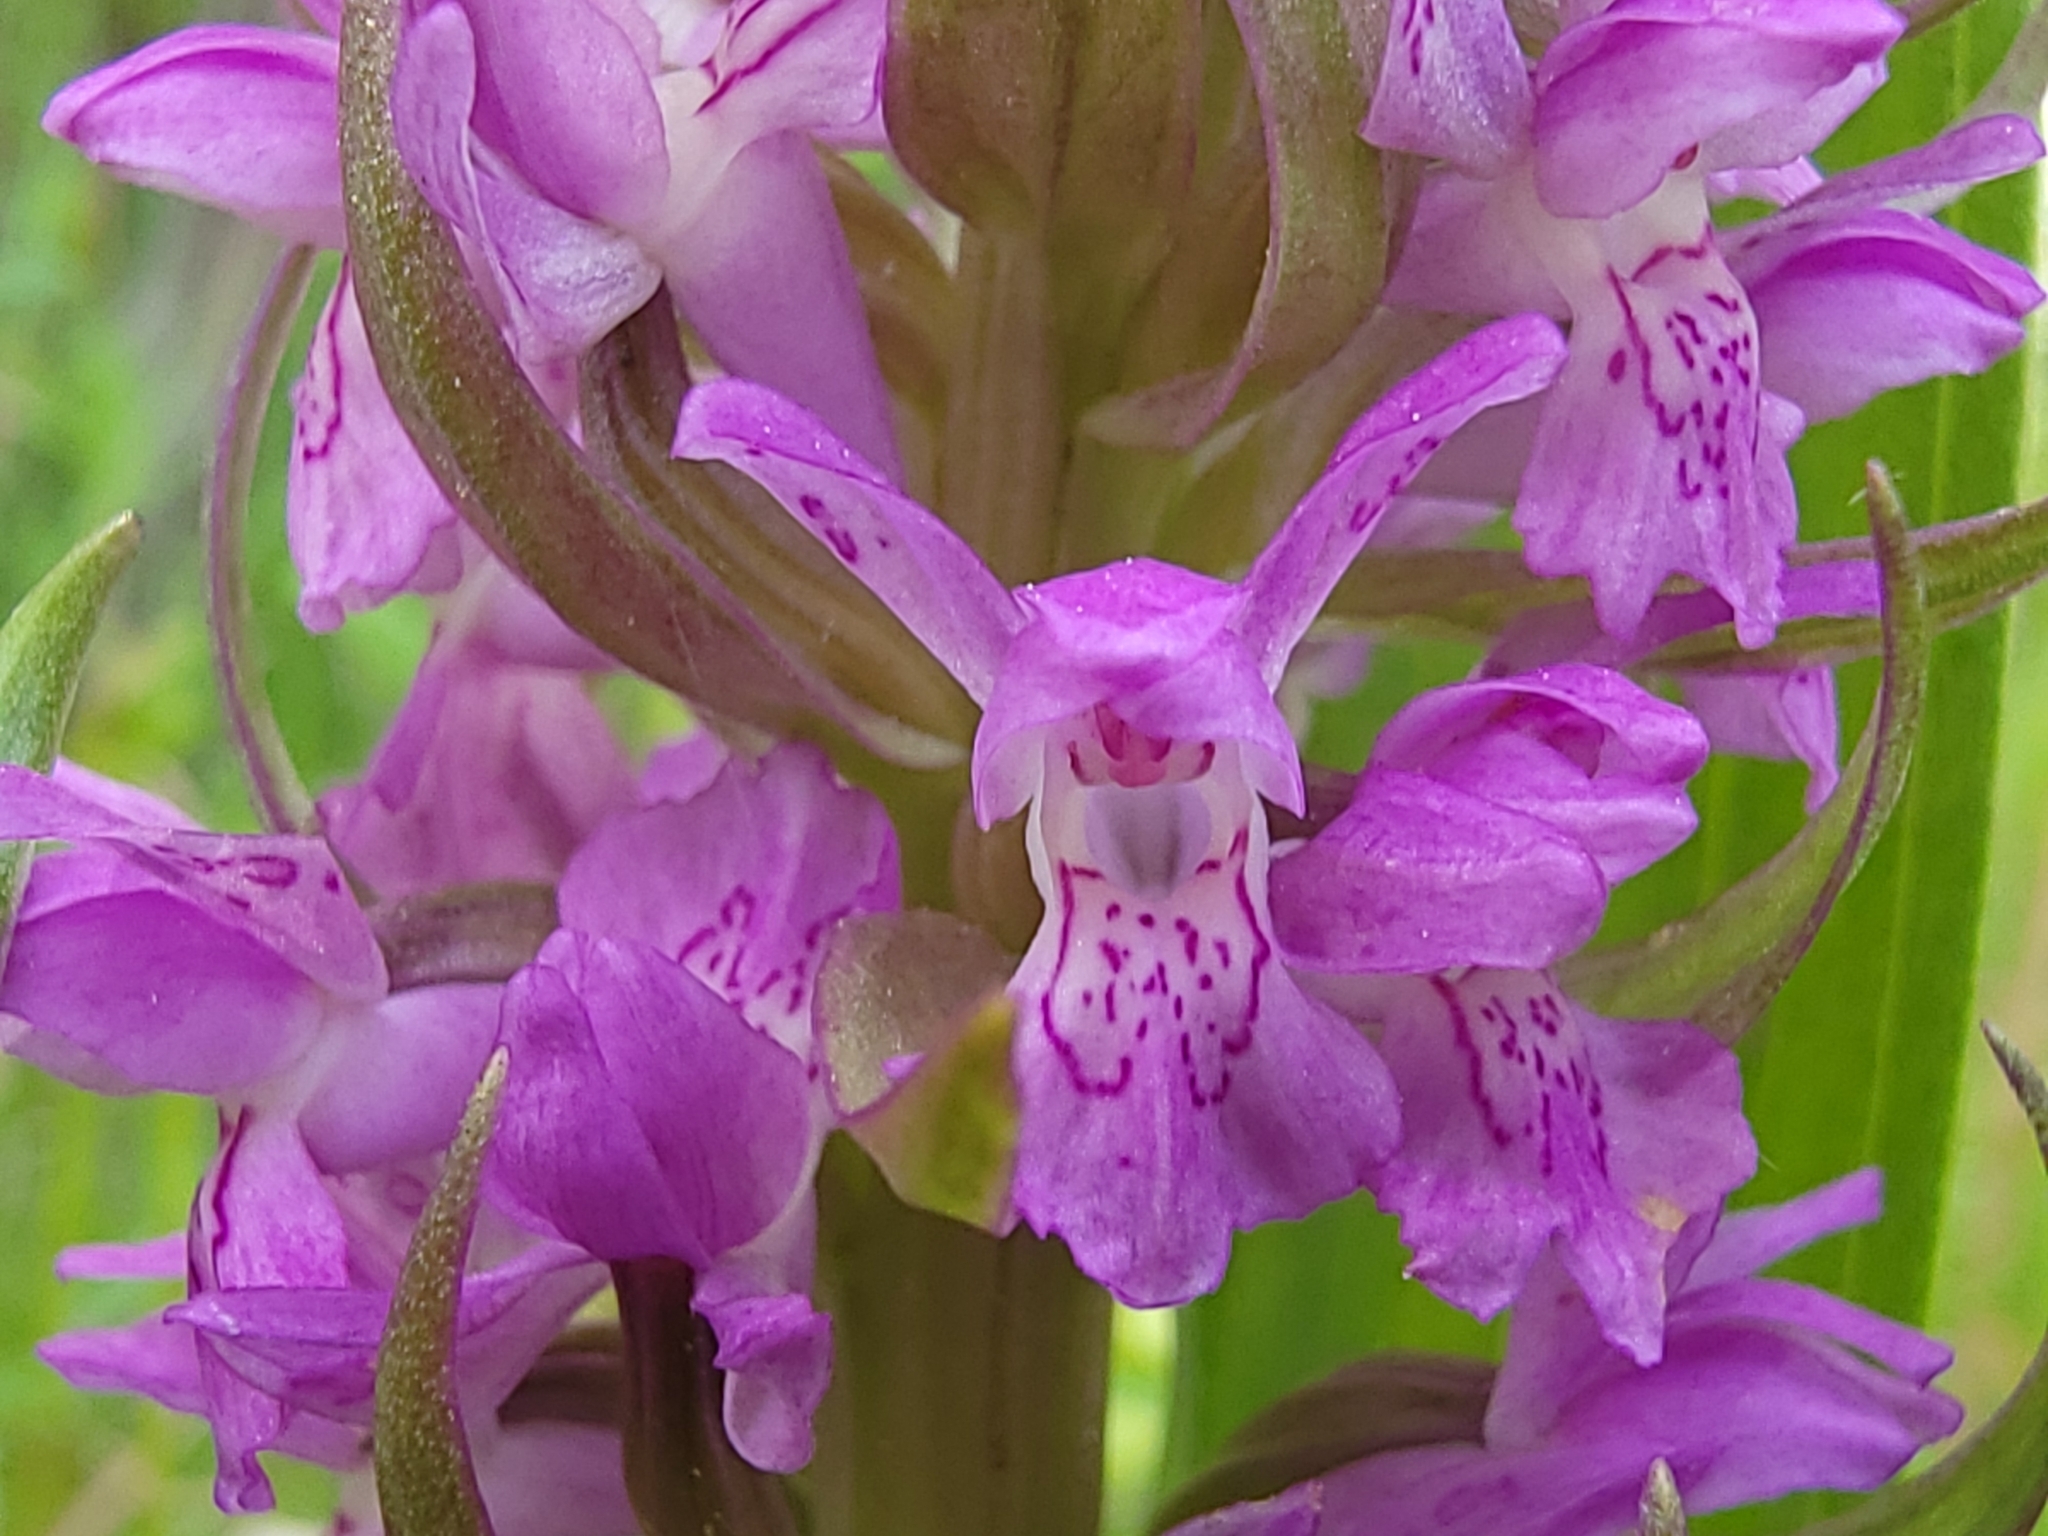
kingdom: Plantae
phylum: Tracheophyta
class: Liliopsida
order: Asparagales
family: Orchidaceae
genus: Dactylorhiza
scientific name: Dactylorhiza incarnata
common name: Early marsh-orchid
